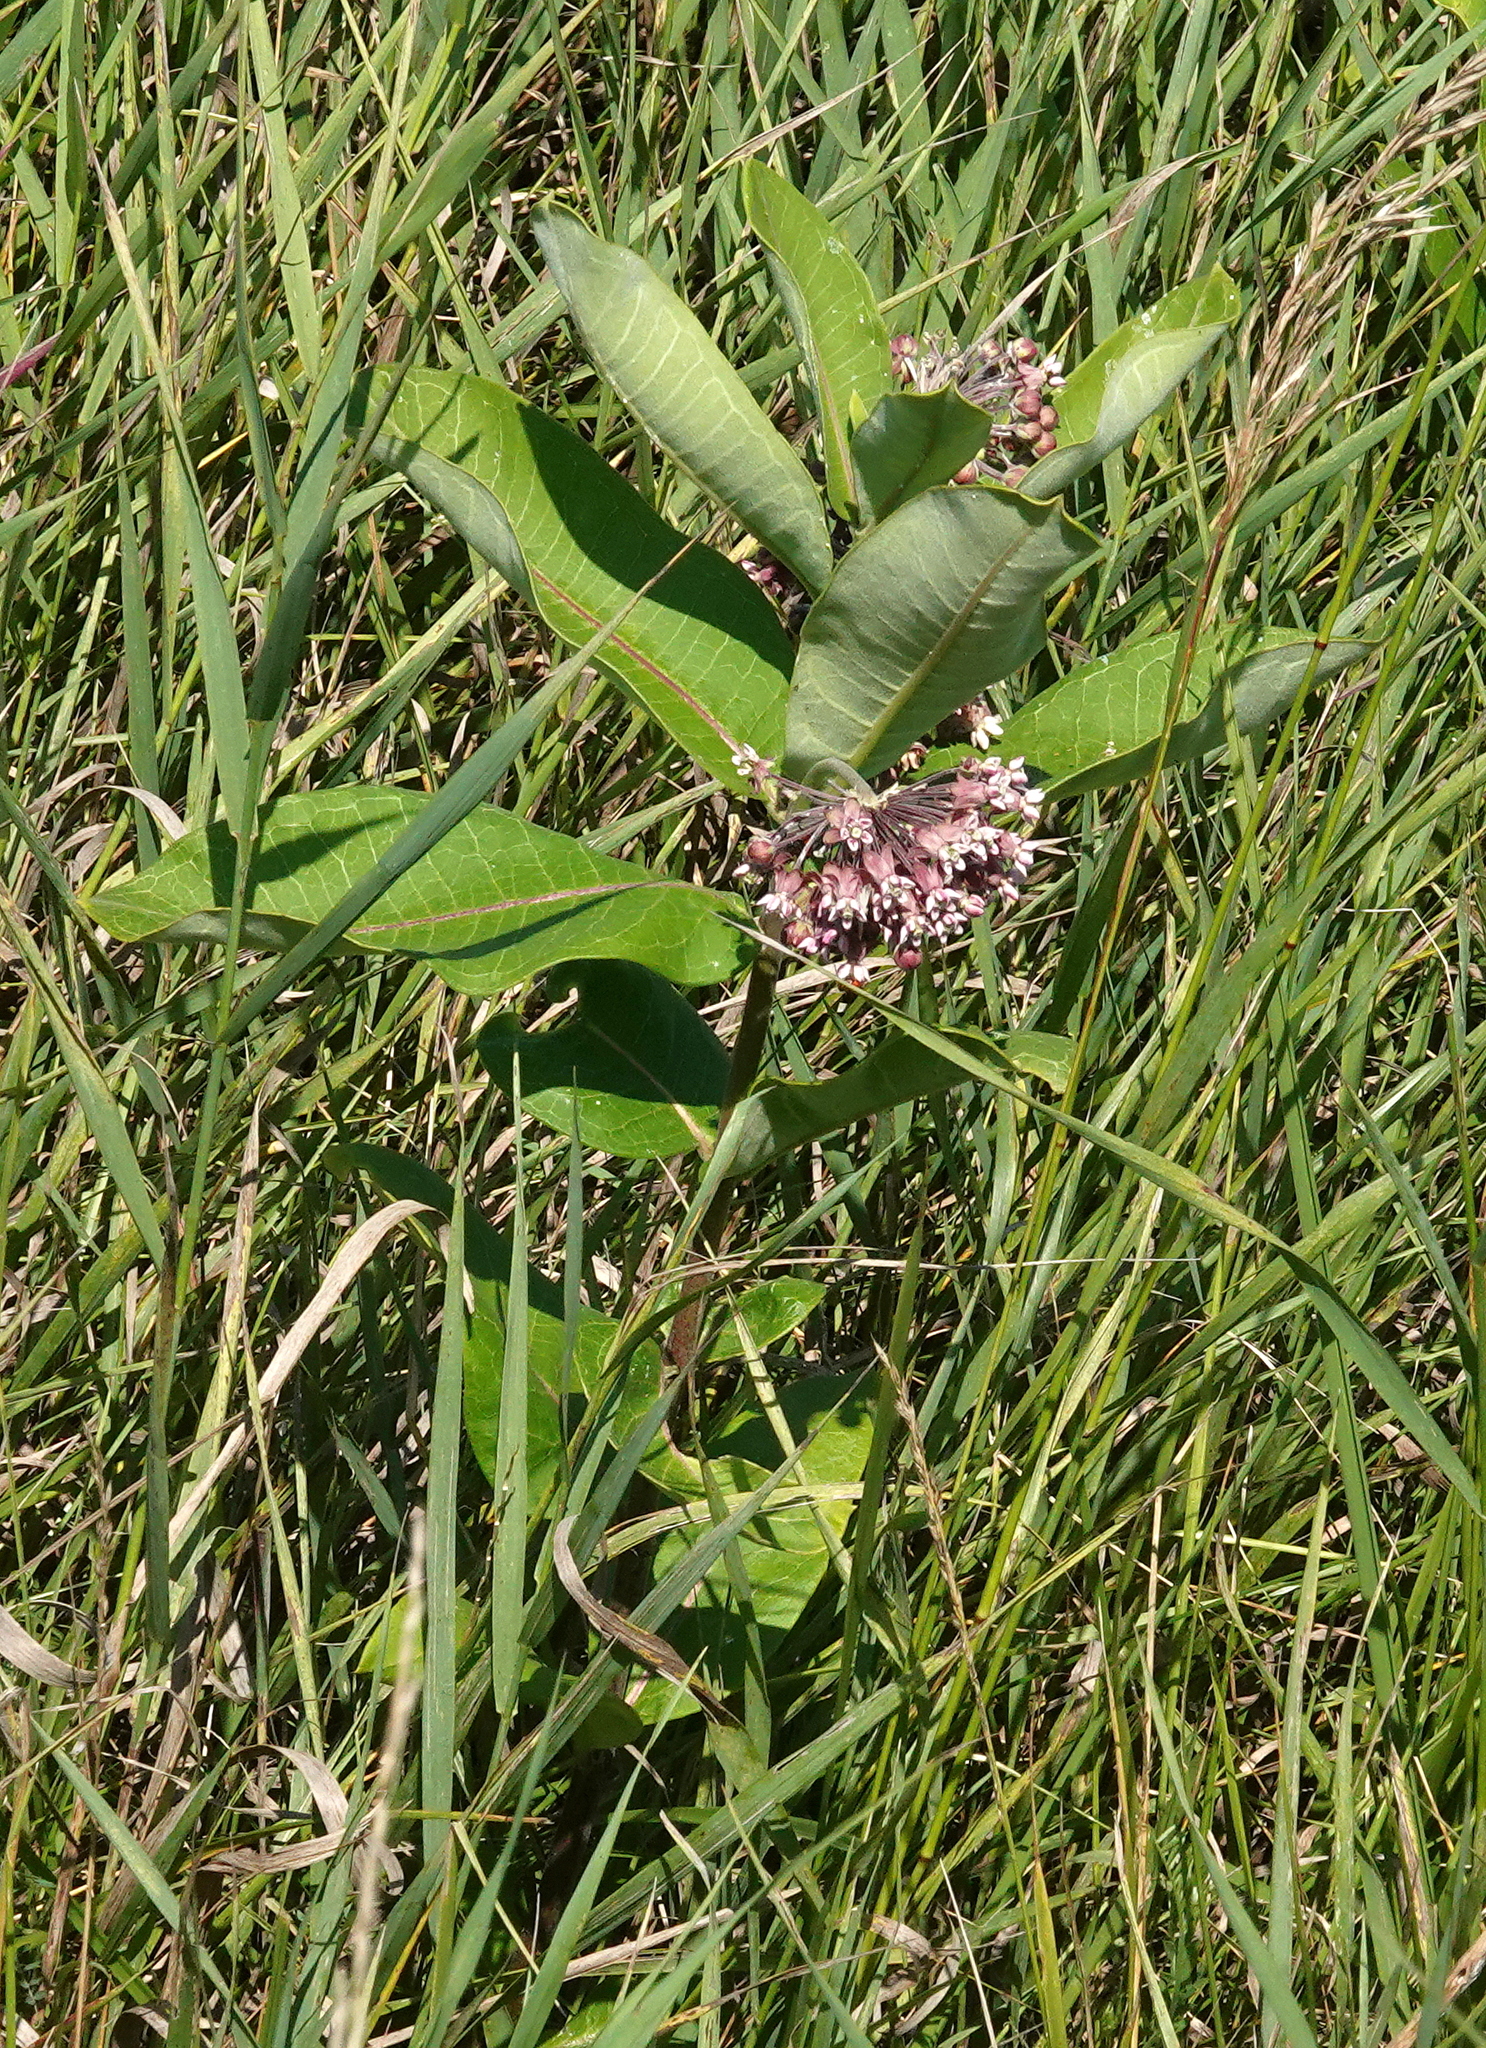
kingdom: Plantae
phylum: Tracheophyta
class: Magnoliopsida
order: Gentianales
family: Apocynaceae
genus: Asclepias
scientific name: Asclepias syriaca
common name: Common milkweed
